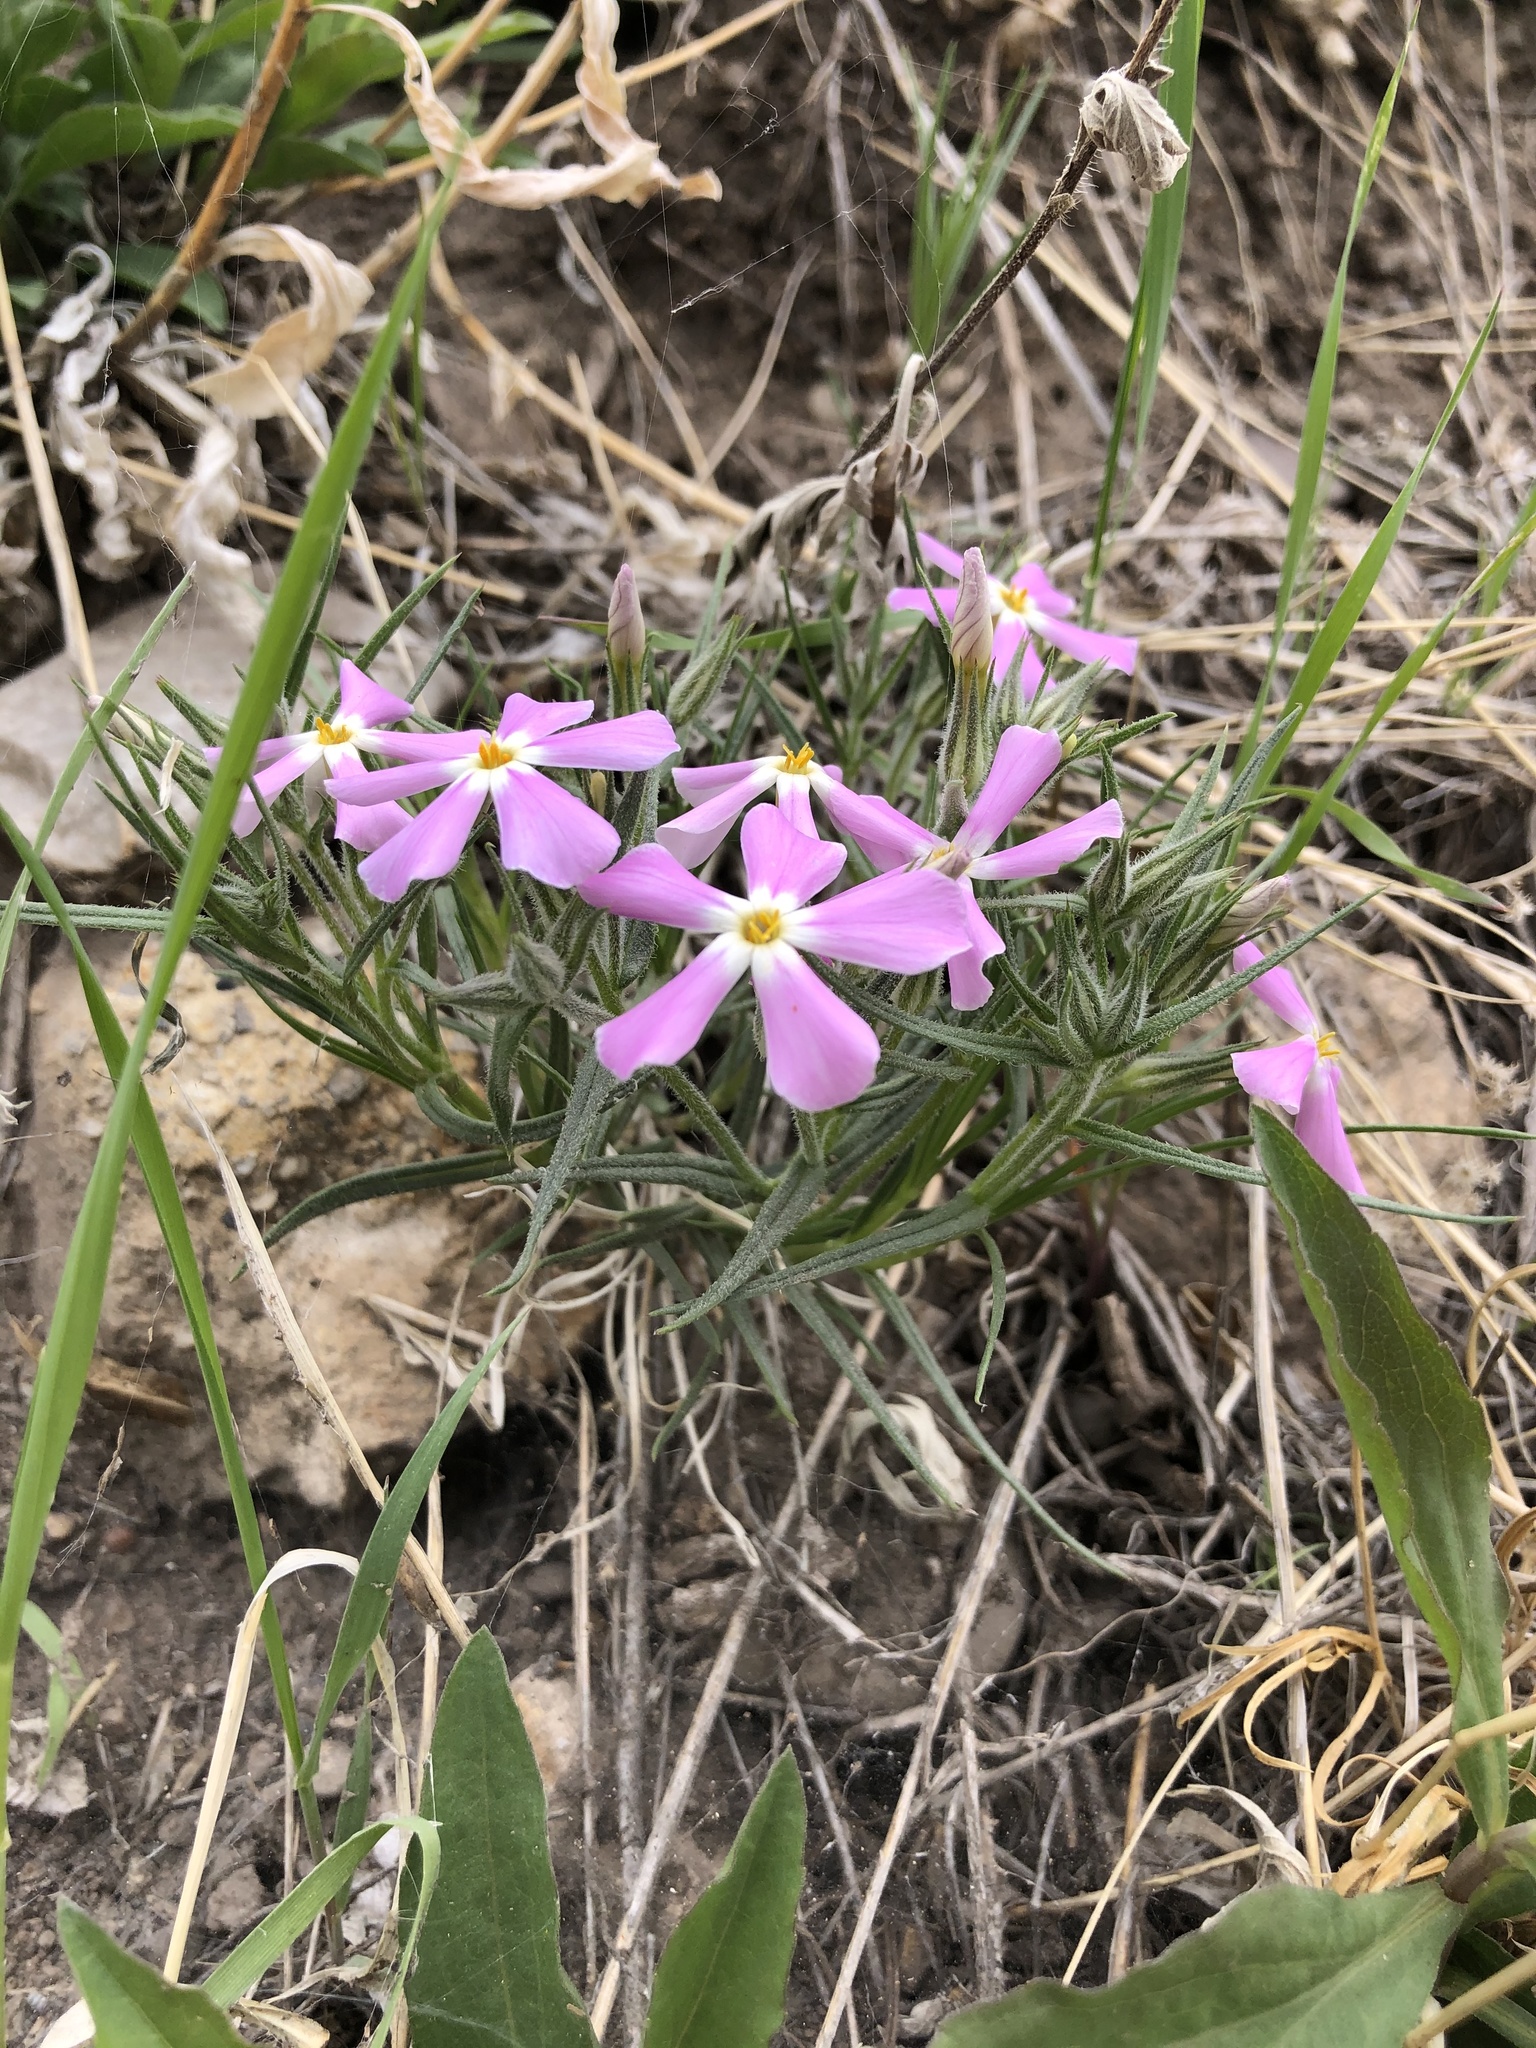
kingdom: Plantae
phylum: Tracheophyta
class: Magnoliopsida
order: Ericales
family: Polemoniaceae
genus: Phlox
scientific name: Phlox longifolia
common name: Longleaf phlox
